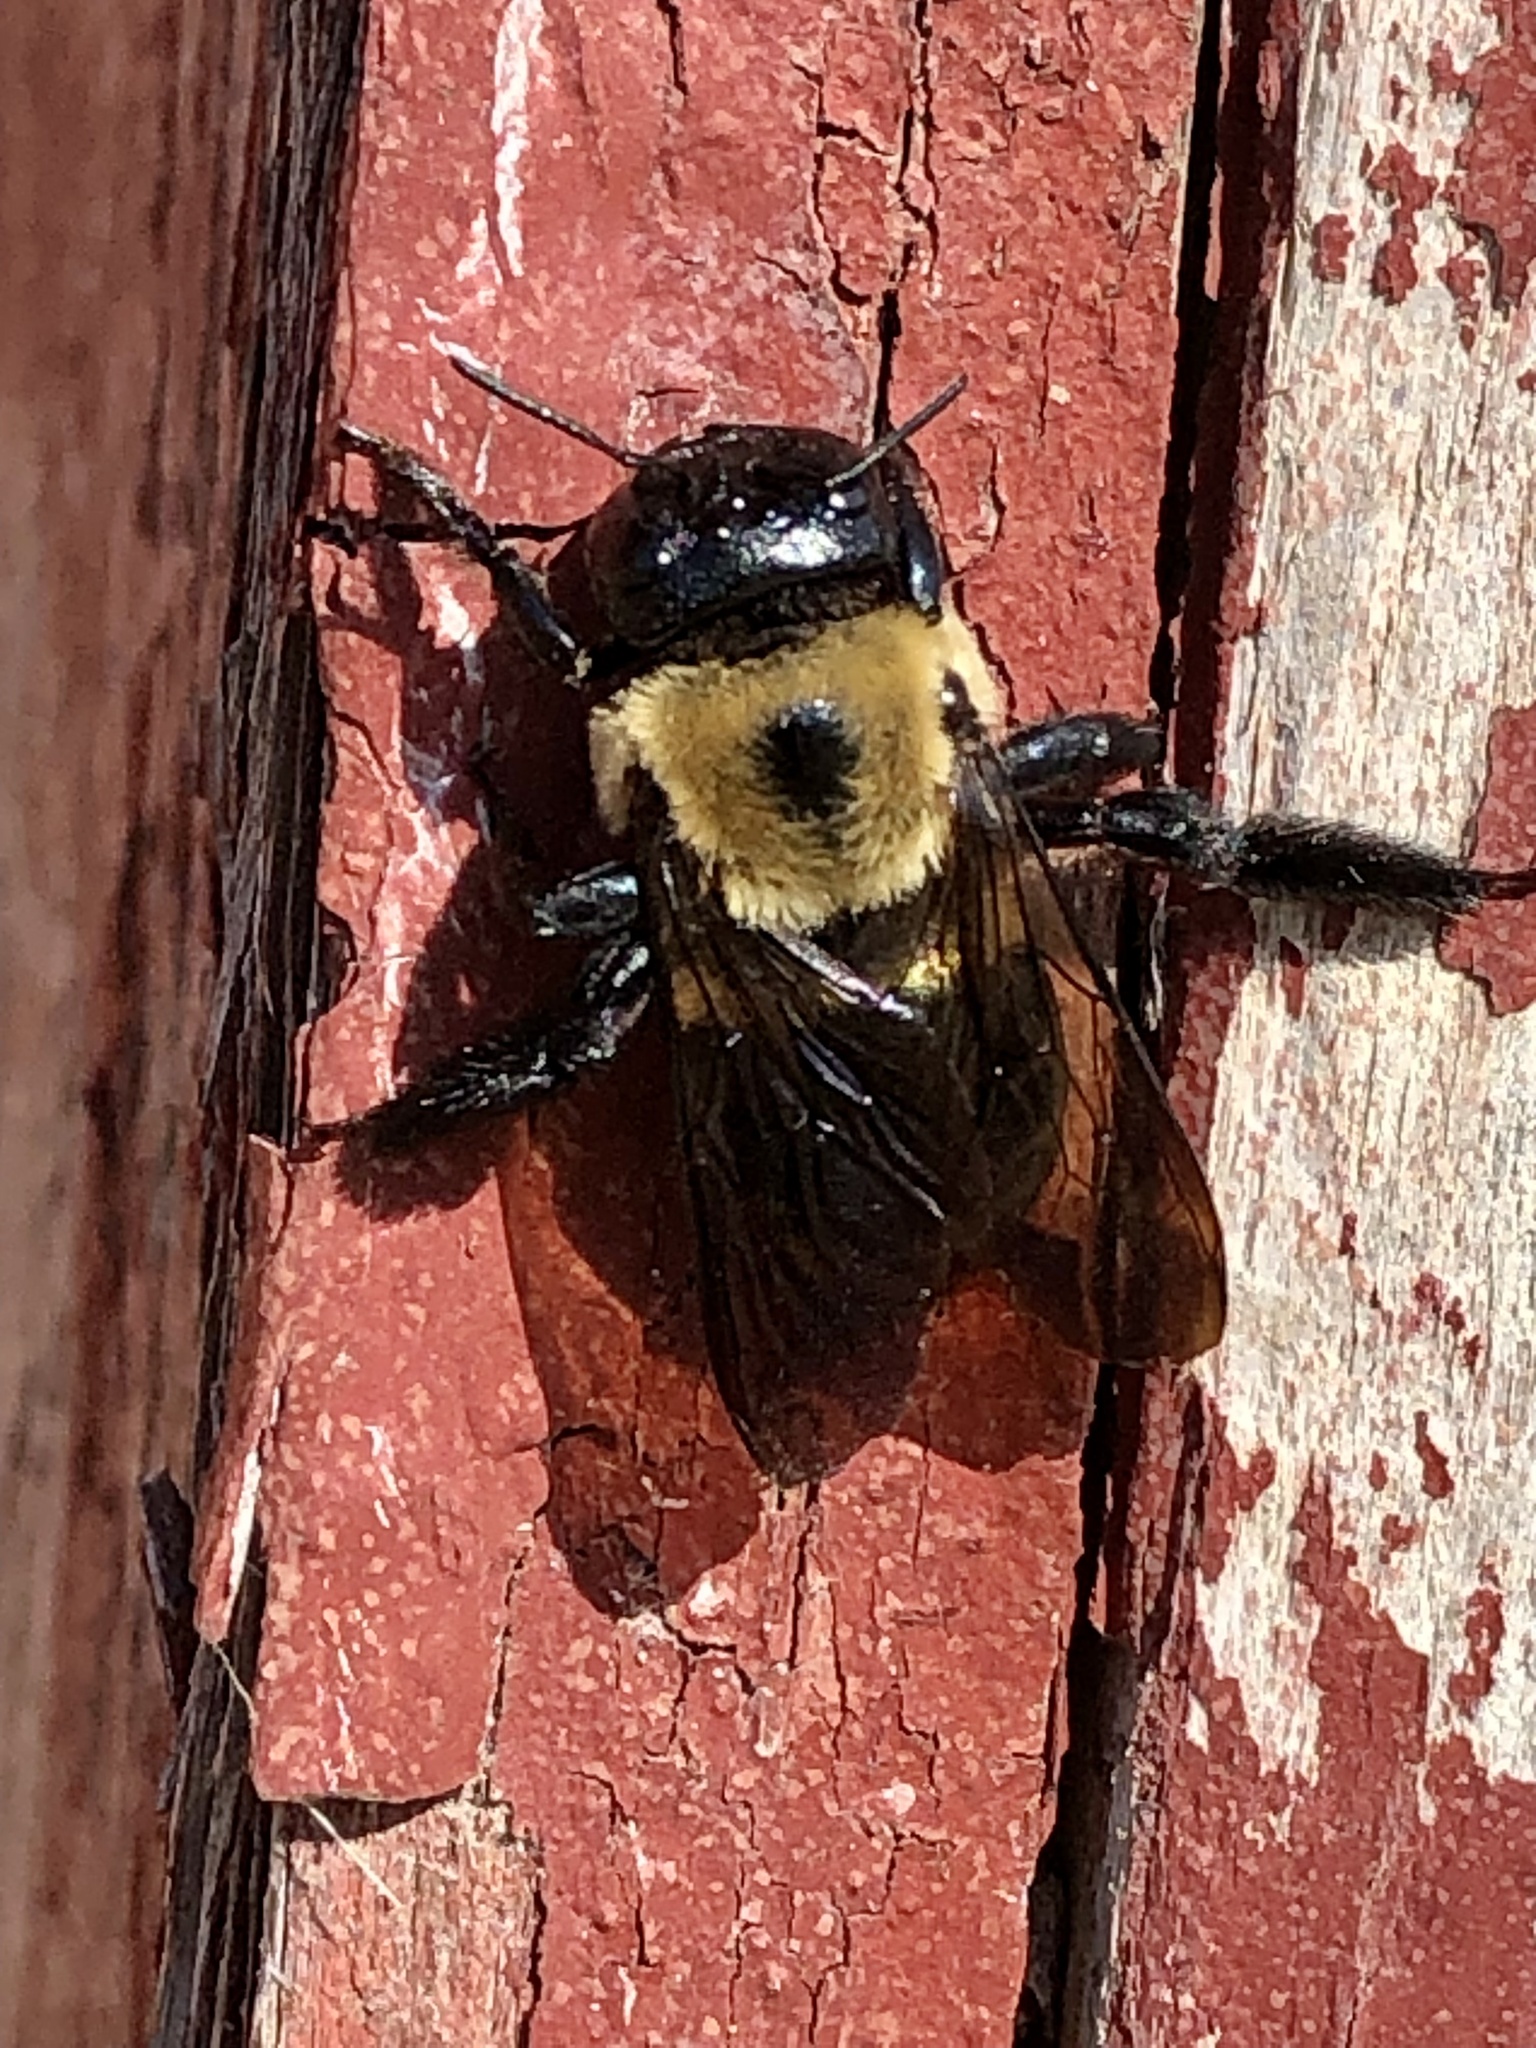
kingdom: Animalia
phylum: Arthropoda
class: Insecta
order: Hymenoptera
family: Apidae
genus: Xylocopa
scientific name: Xylocopa virginica
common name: Carpenter bee
